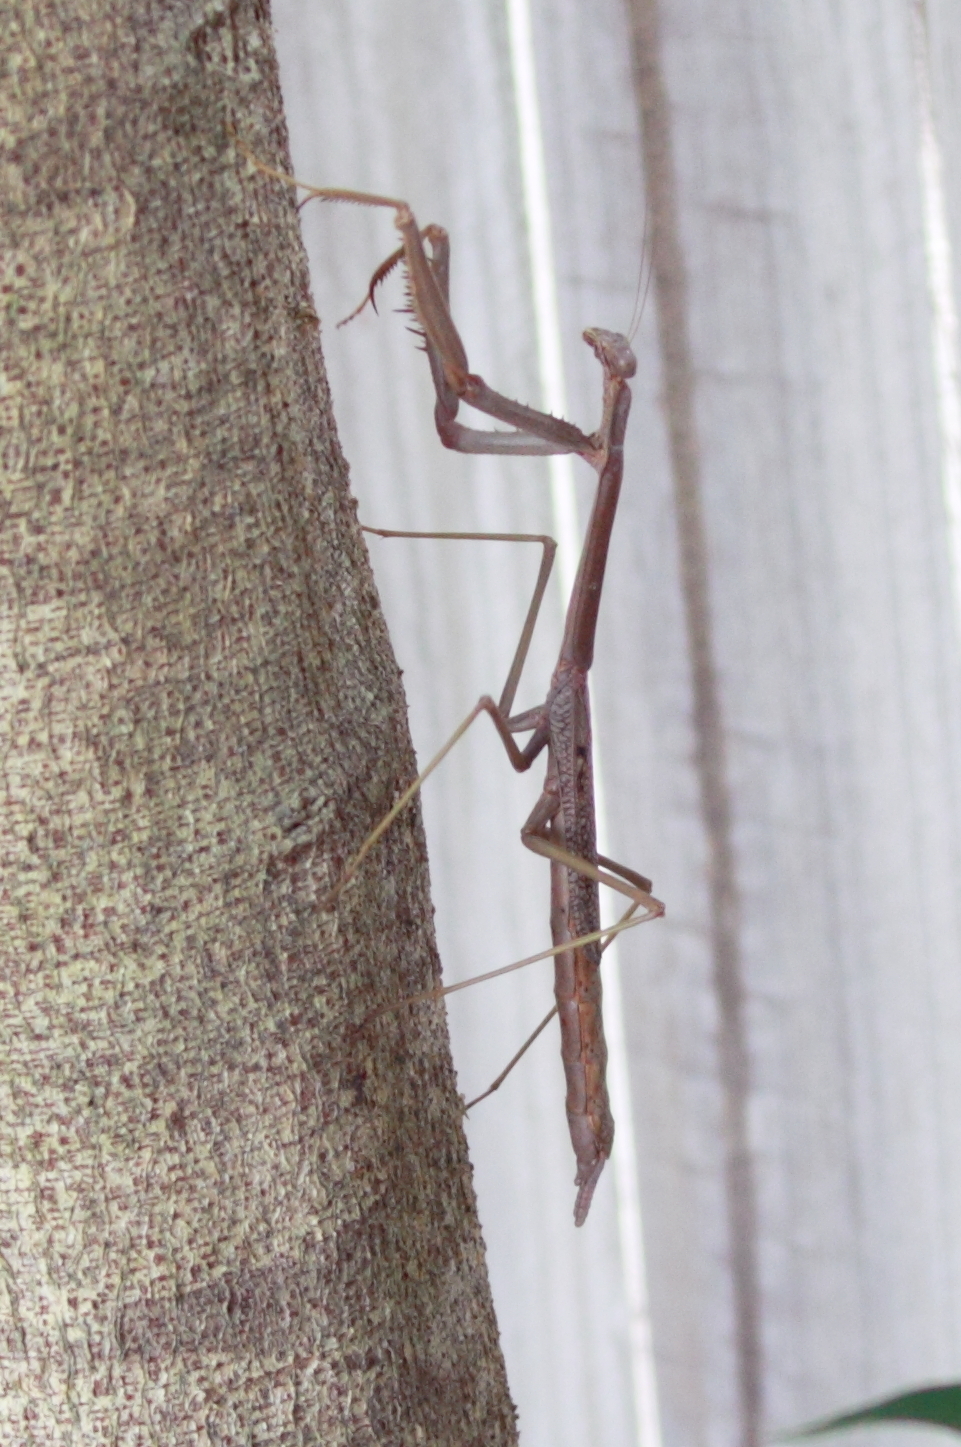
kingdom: Animalia
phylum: Arthropoda
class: Insecta
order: Mantodea
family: Mantidae
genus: Archimantis
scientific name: Archimantis latistyla
